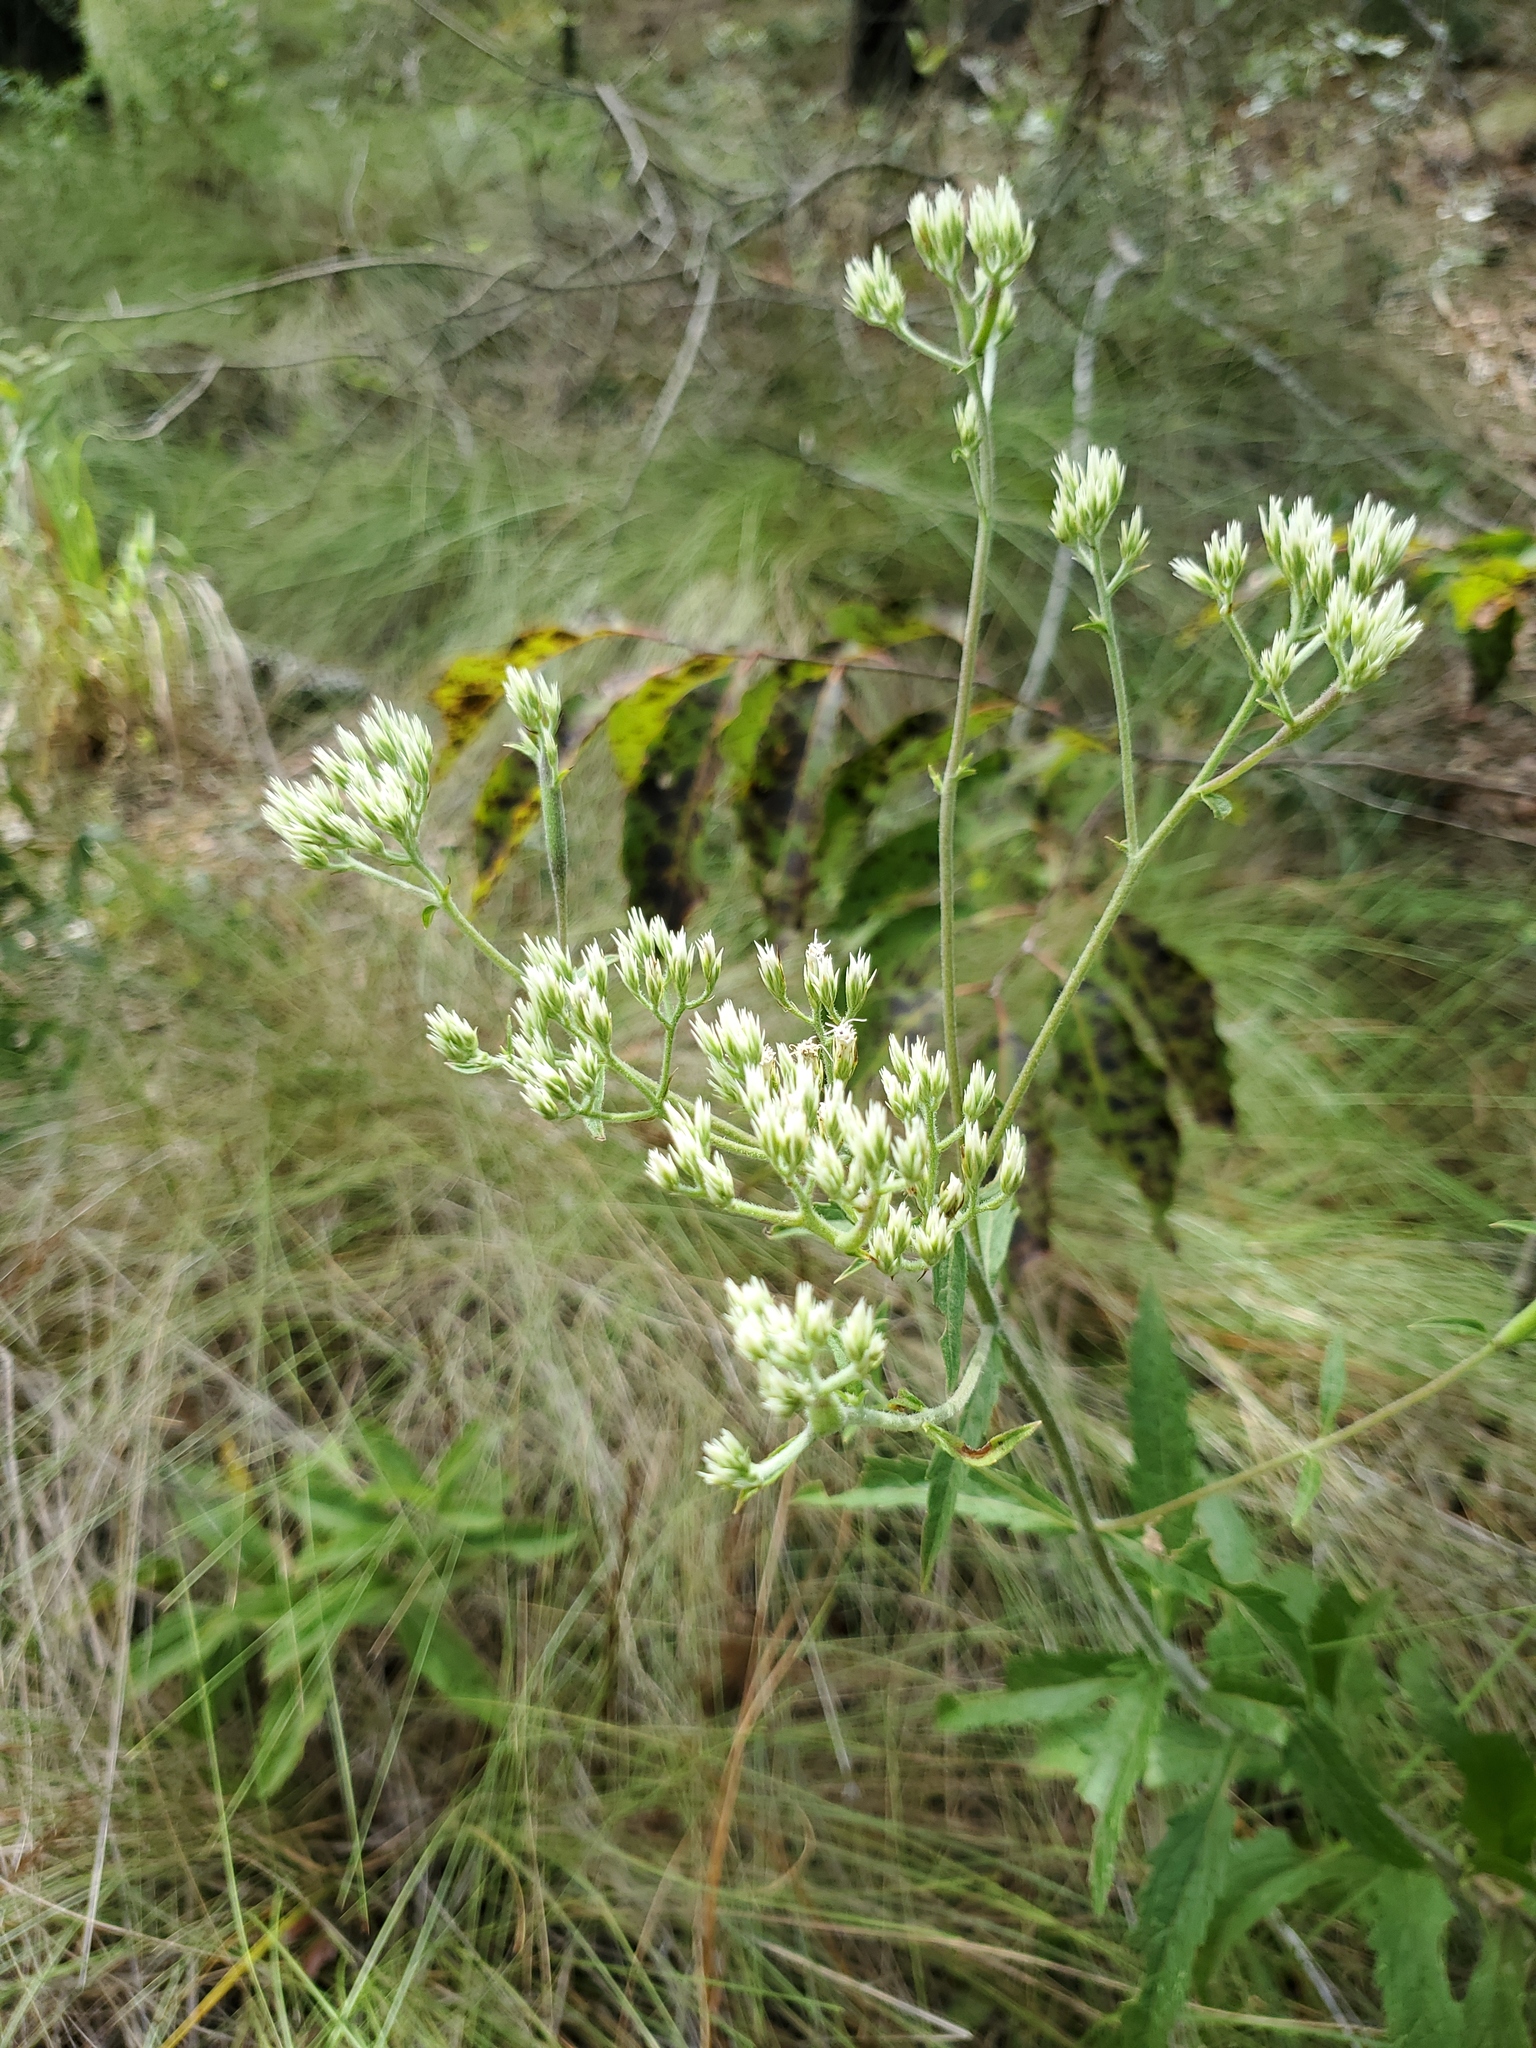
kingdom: Plantae
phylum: Tracheophyta
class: Magnoliopsida
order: Asterales
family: Asteraceae
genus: Eupatorium
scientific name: Eupatorium album
